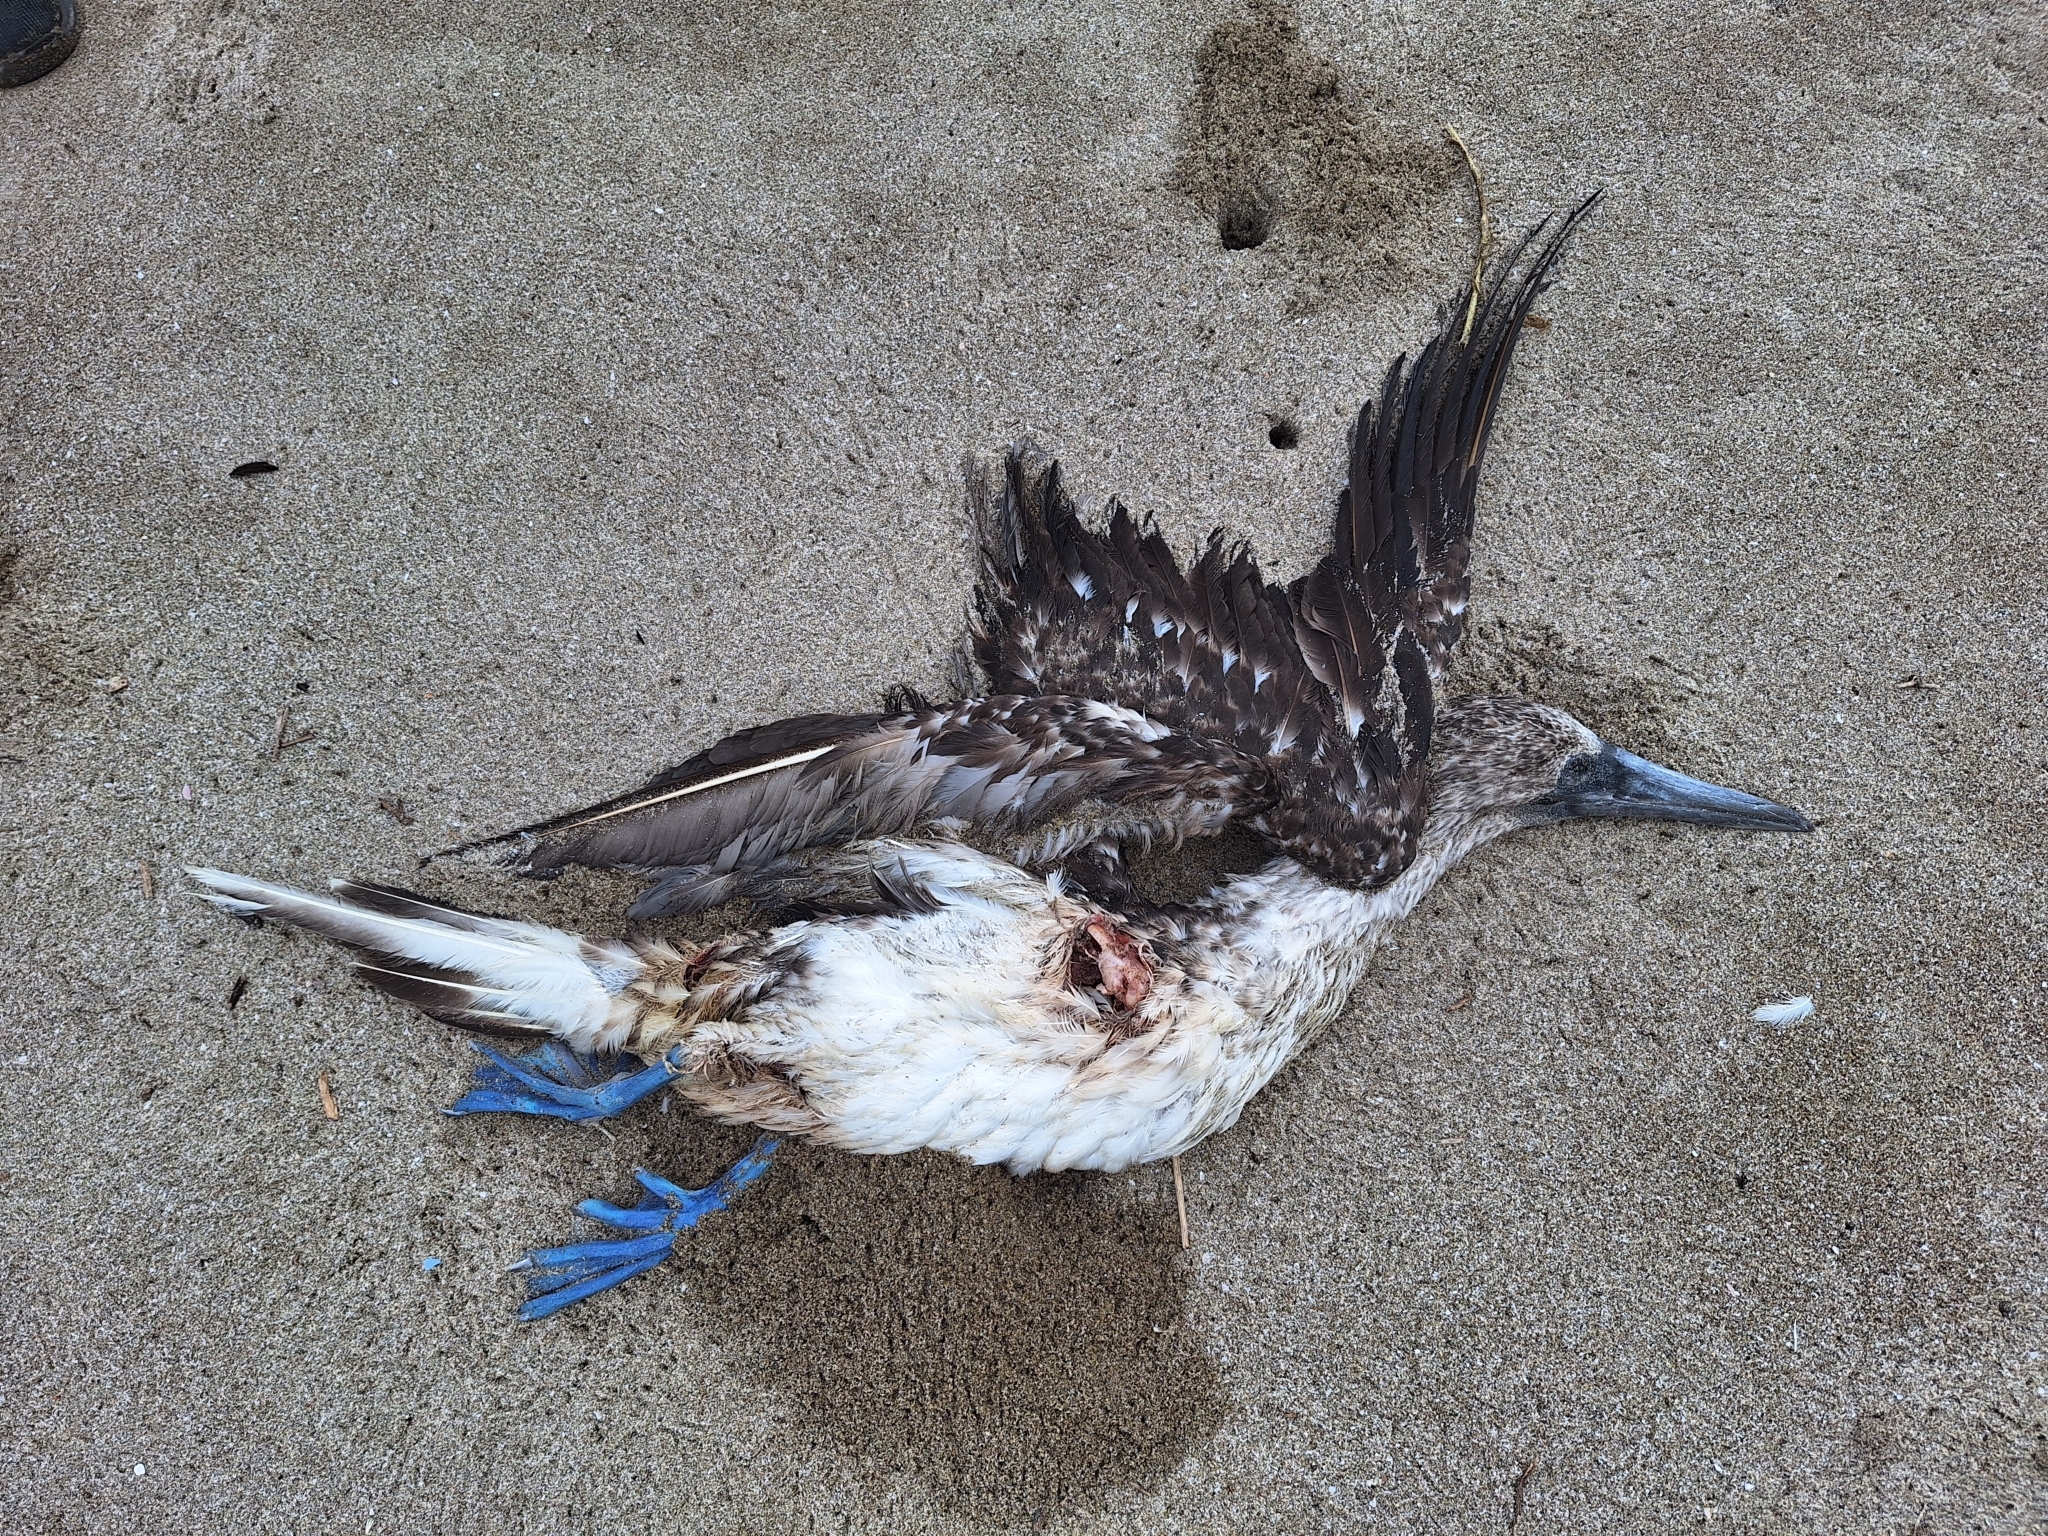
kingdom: Animalia
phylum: Chordata
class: Aves
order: Suliformes
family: Sulidae
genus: Sula
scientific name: Sula nebouxii
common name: Blue-footed booby
